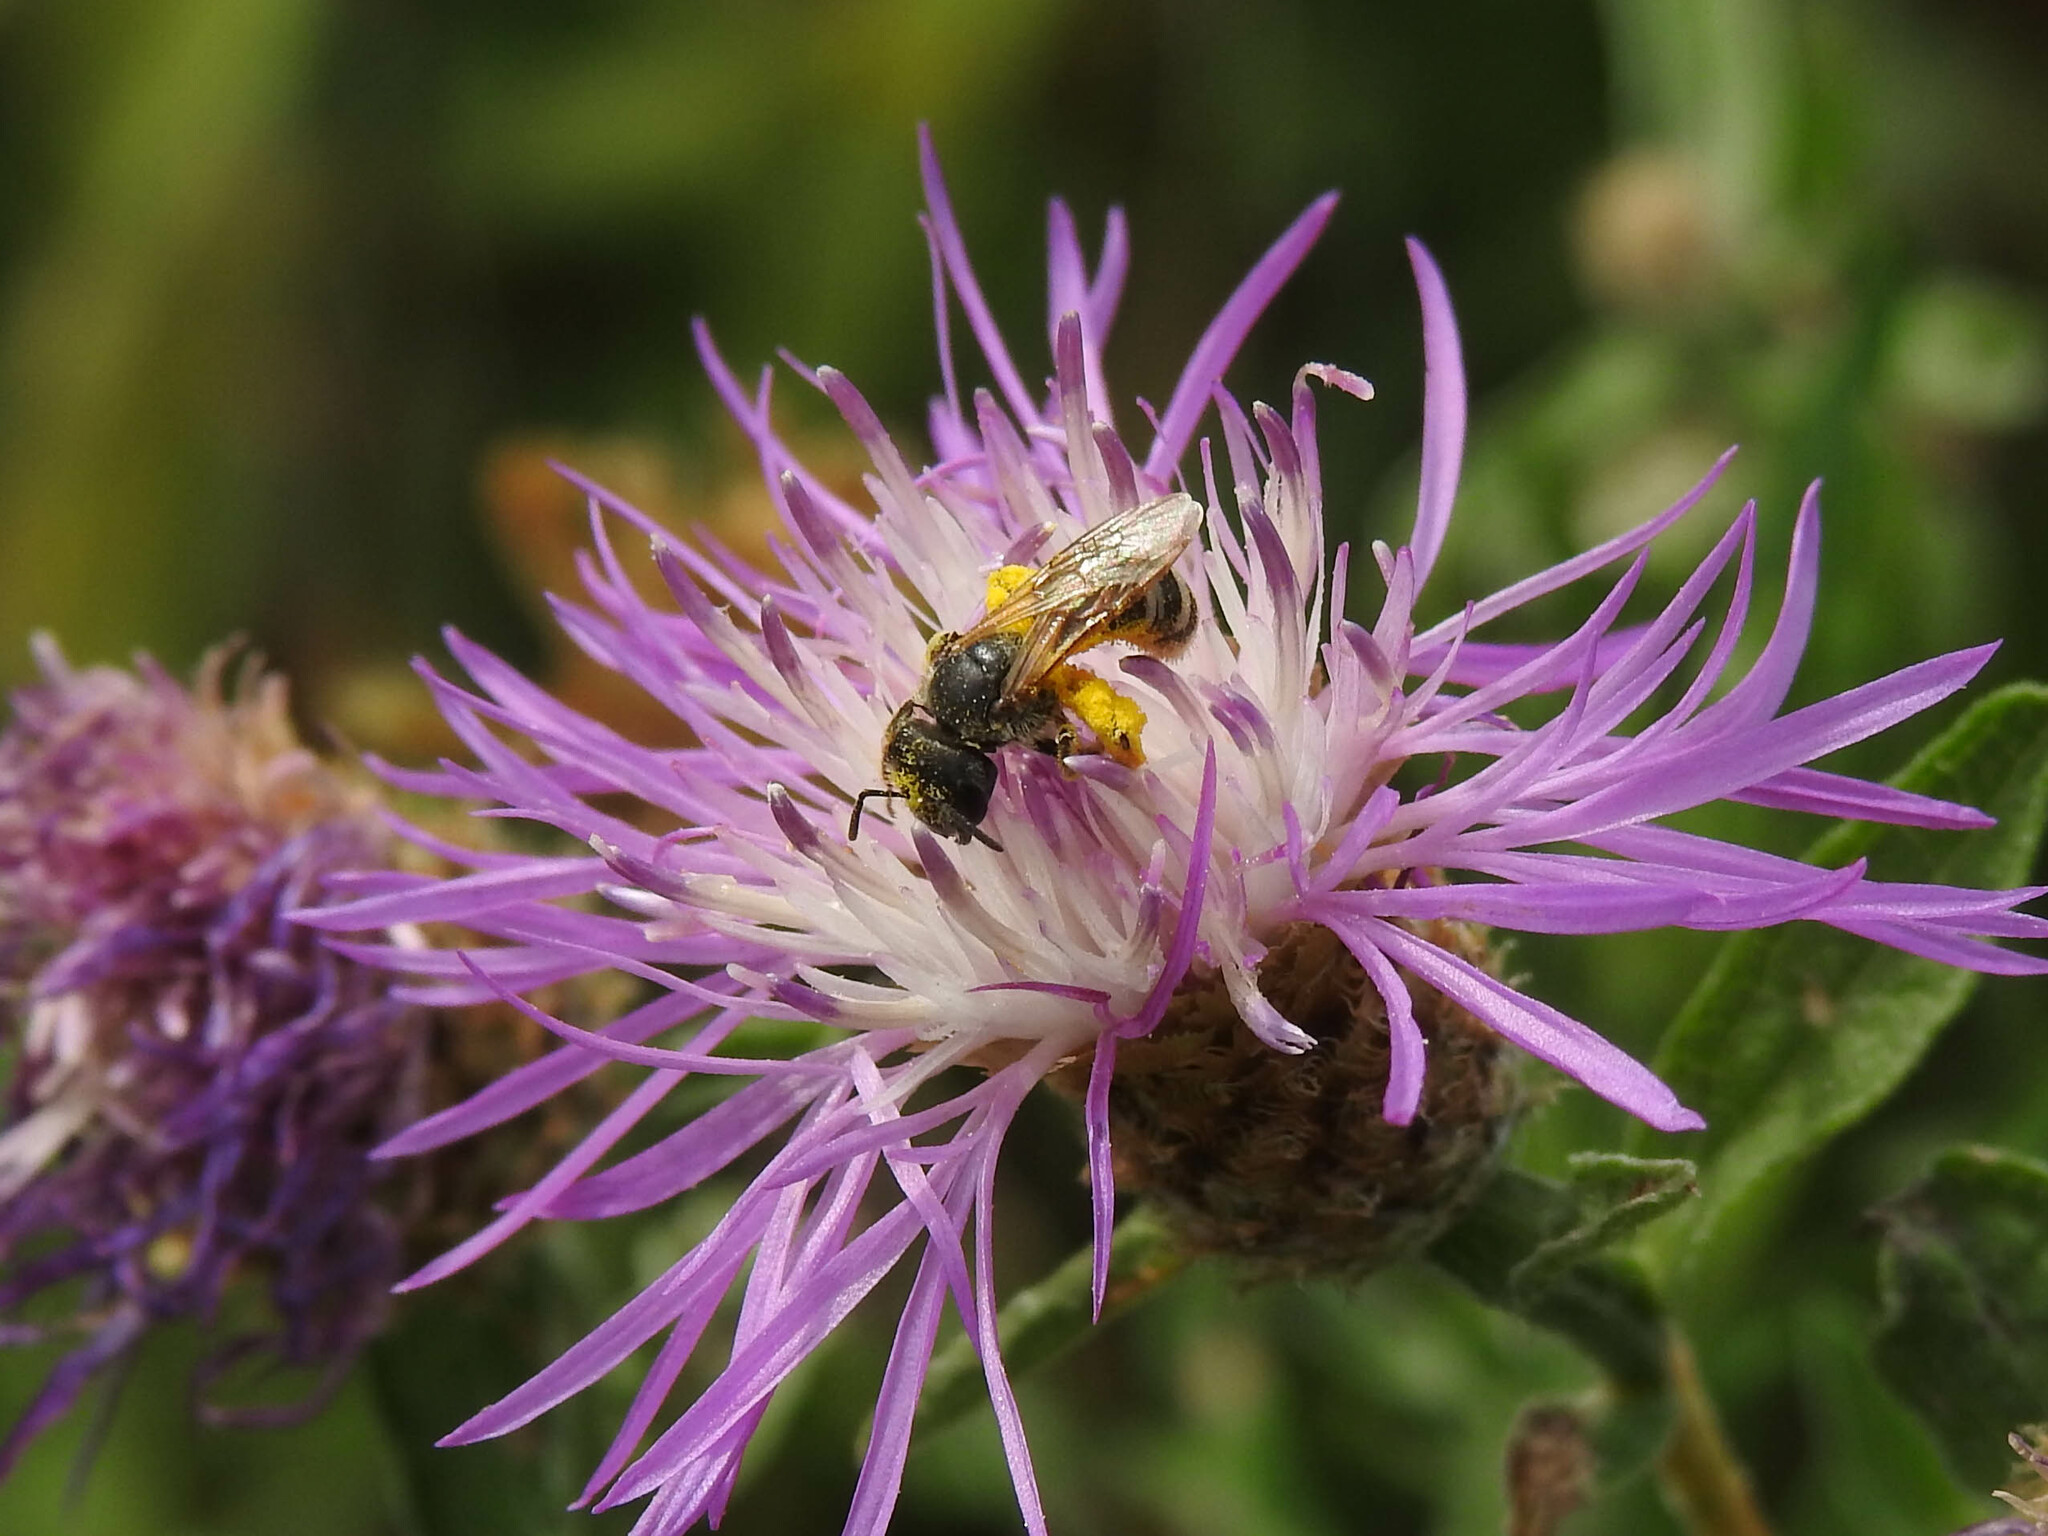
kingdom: Animalia
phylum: Arthropoda
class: Insecta
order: Hymenoptera
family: Halictidae
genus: Halictus
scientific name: Halictus ligatus
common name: Ligated furrow bee
